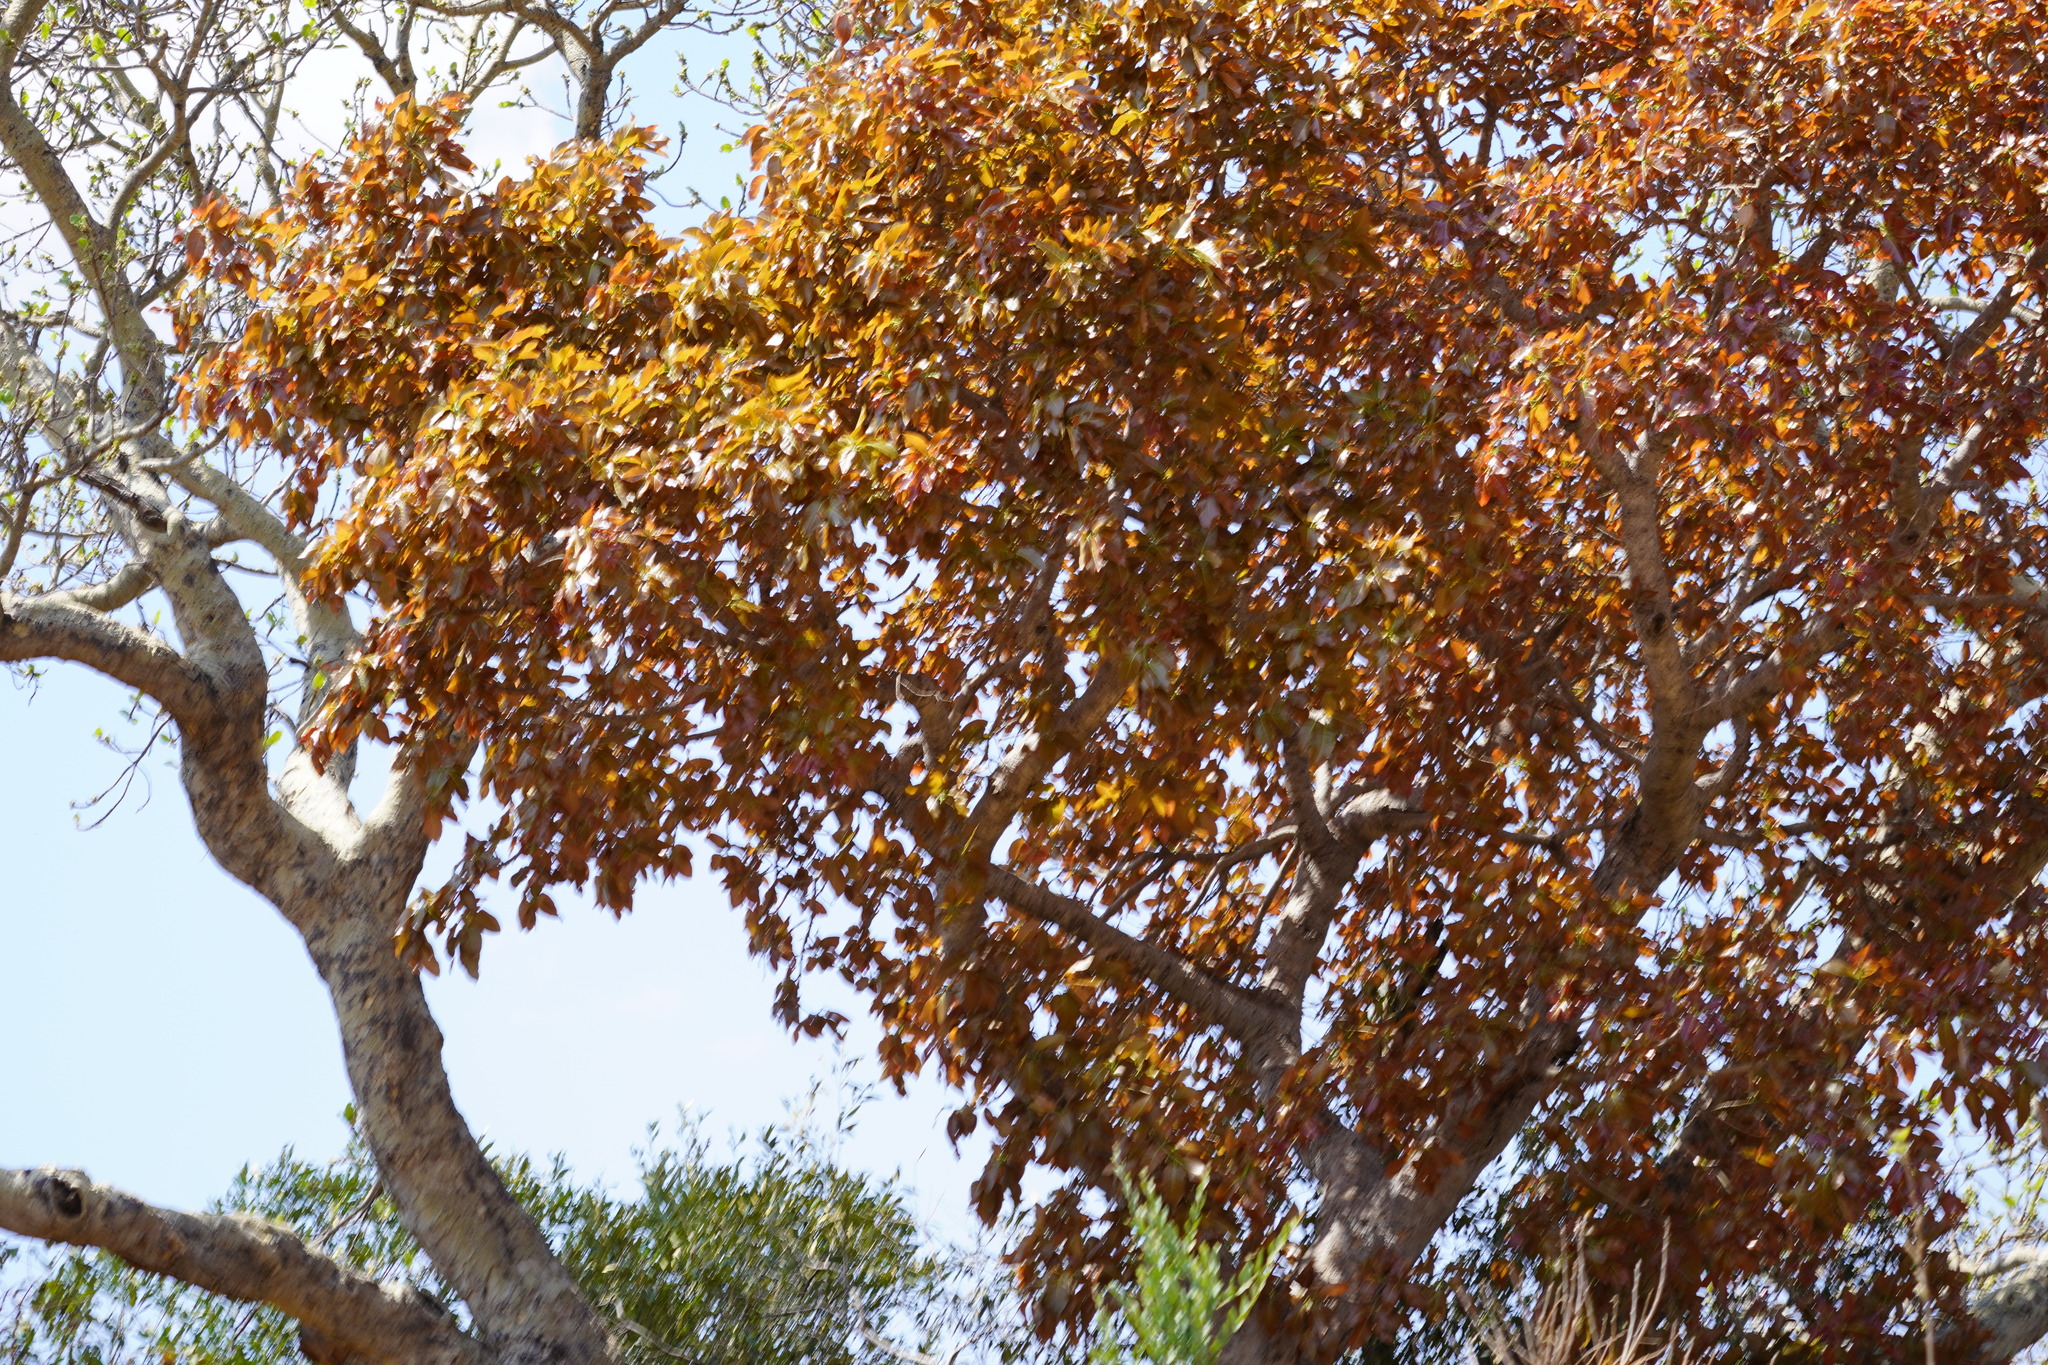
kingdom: Plantae
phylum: Tracheophyta
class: Magnoliopsida
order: Rosales
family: Moraceae
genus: Ficus
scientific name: Ficus ingens
